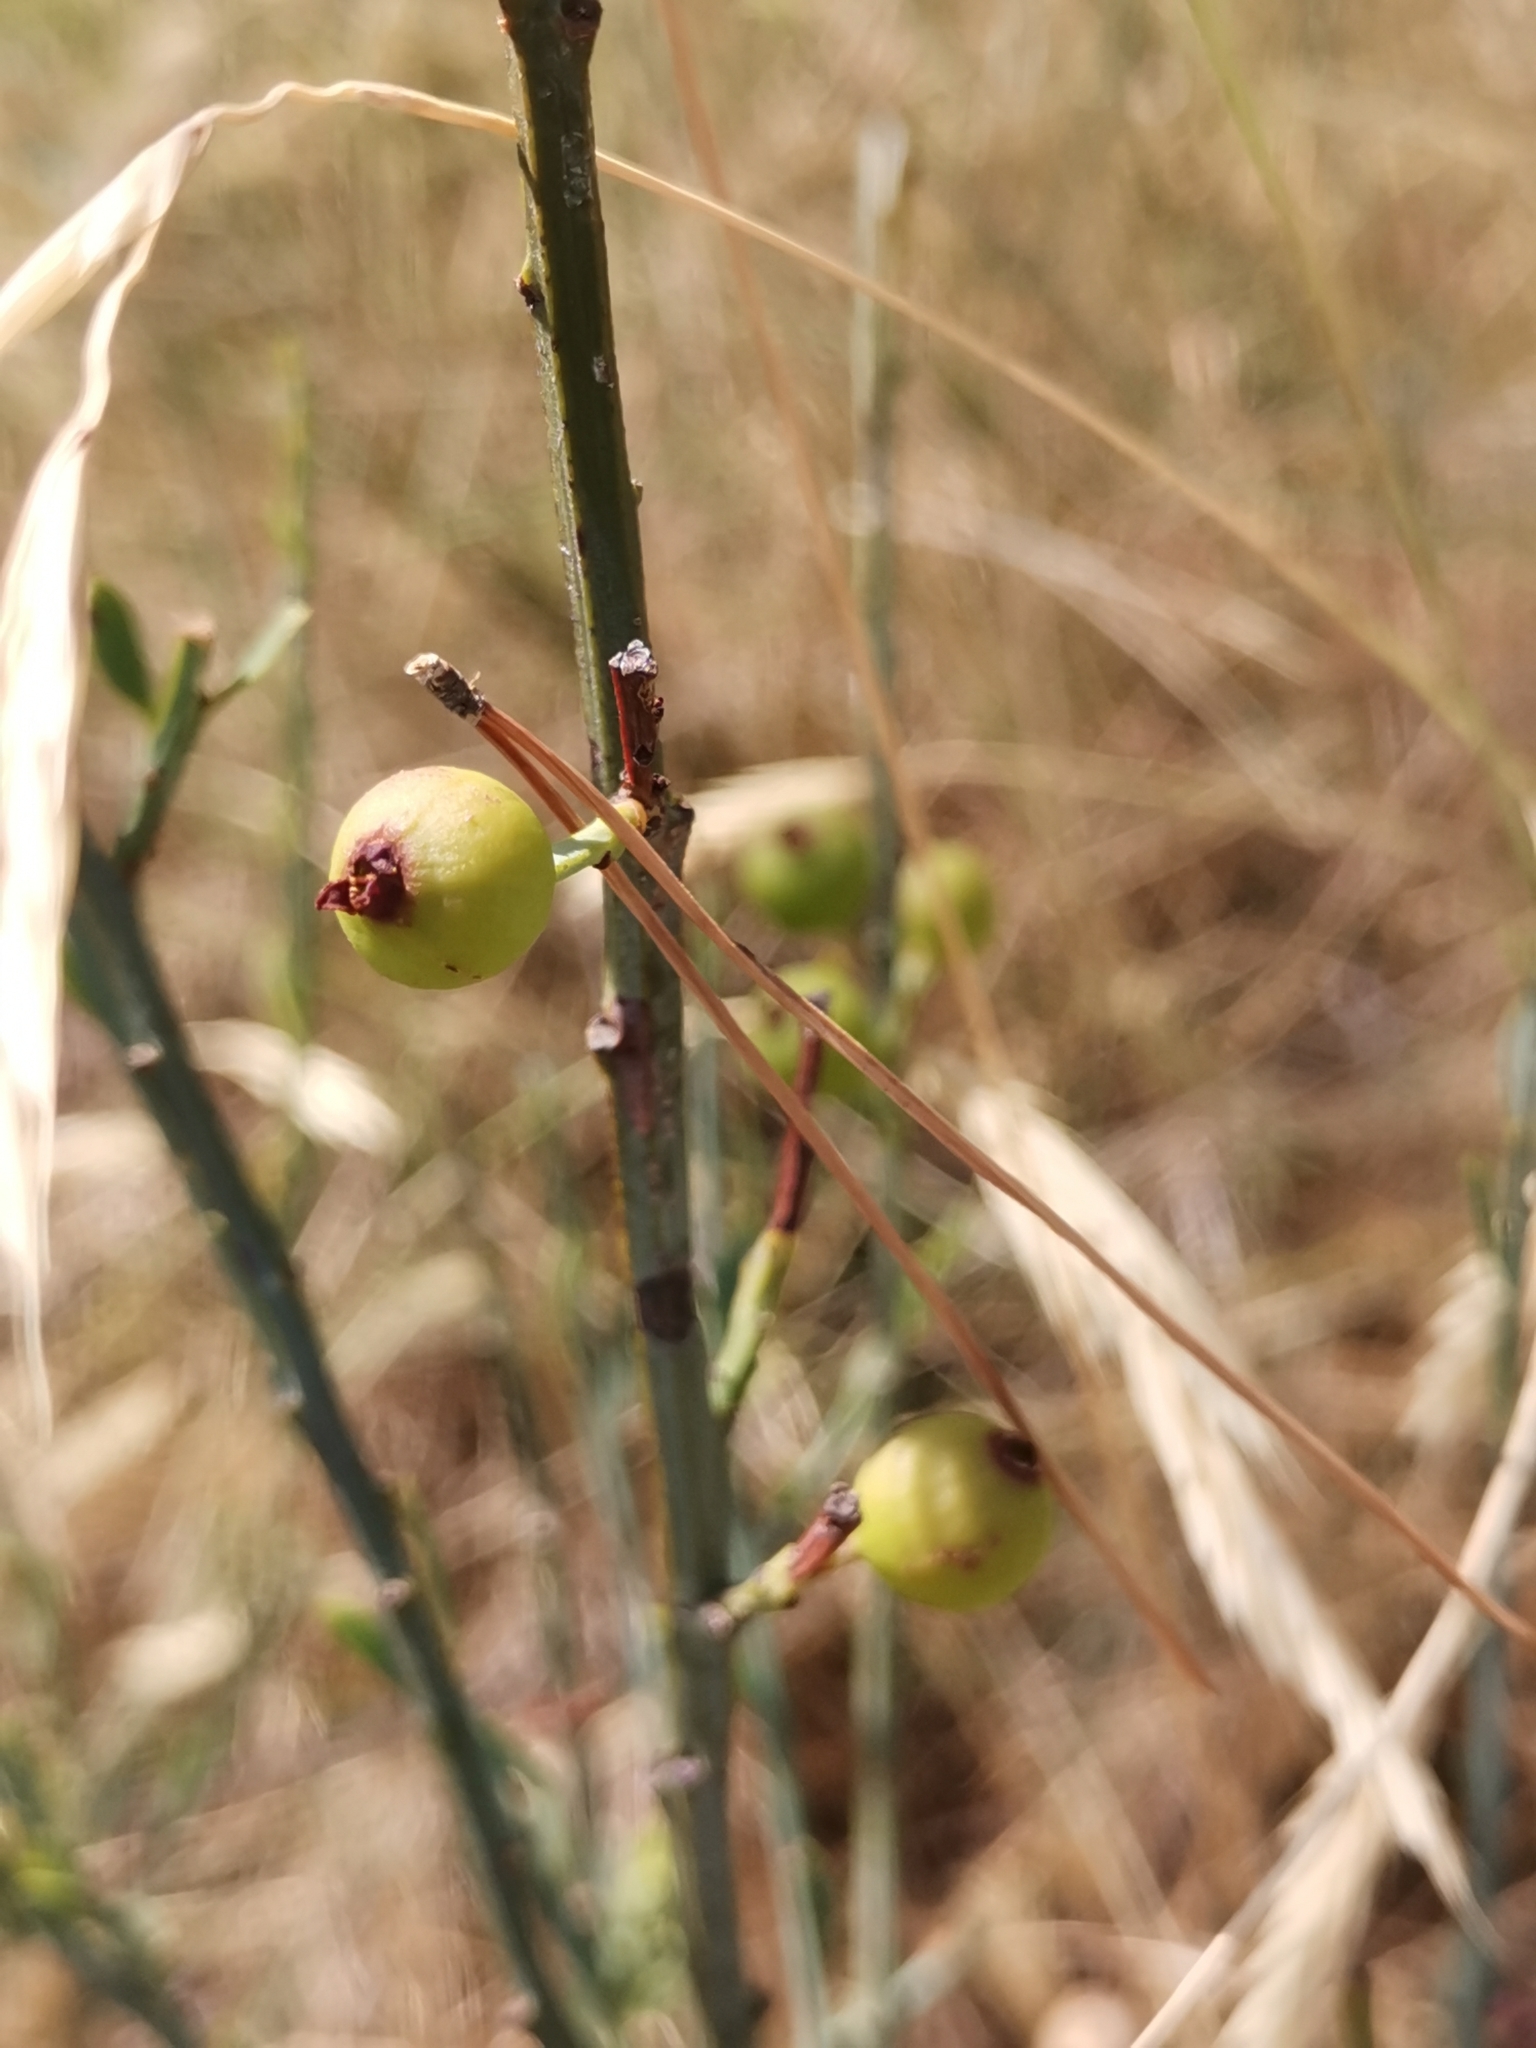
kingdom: Plantae
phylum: Tracheophyta
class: Magnoliopsida
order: Santalales
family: Santalaceae
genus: Osyris
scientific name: Osyris alba
